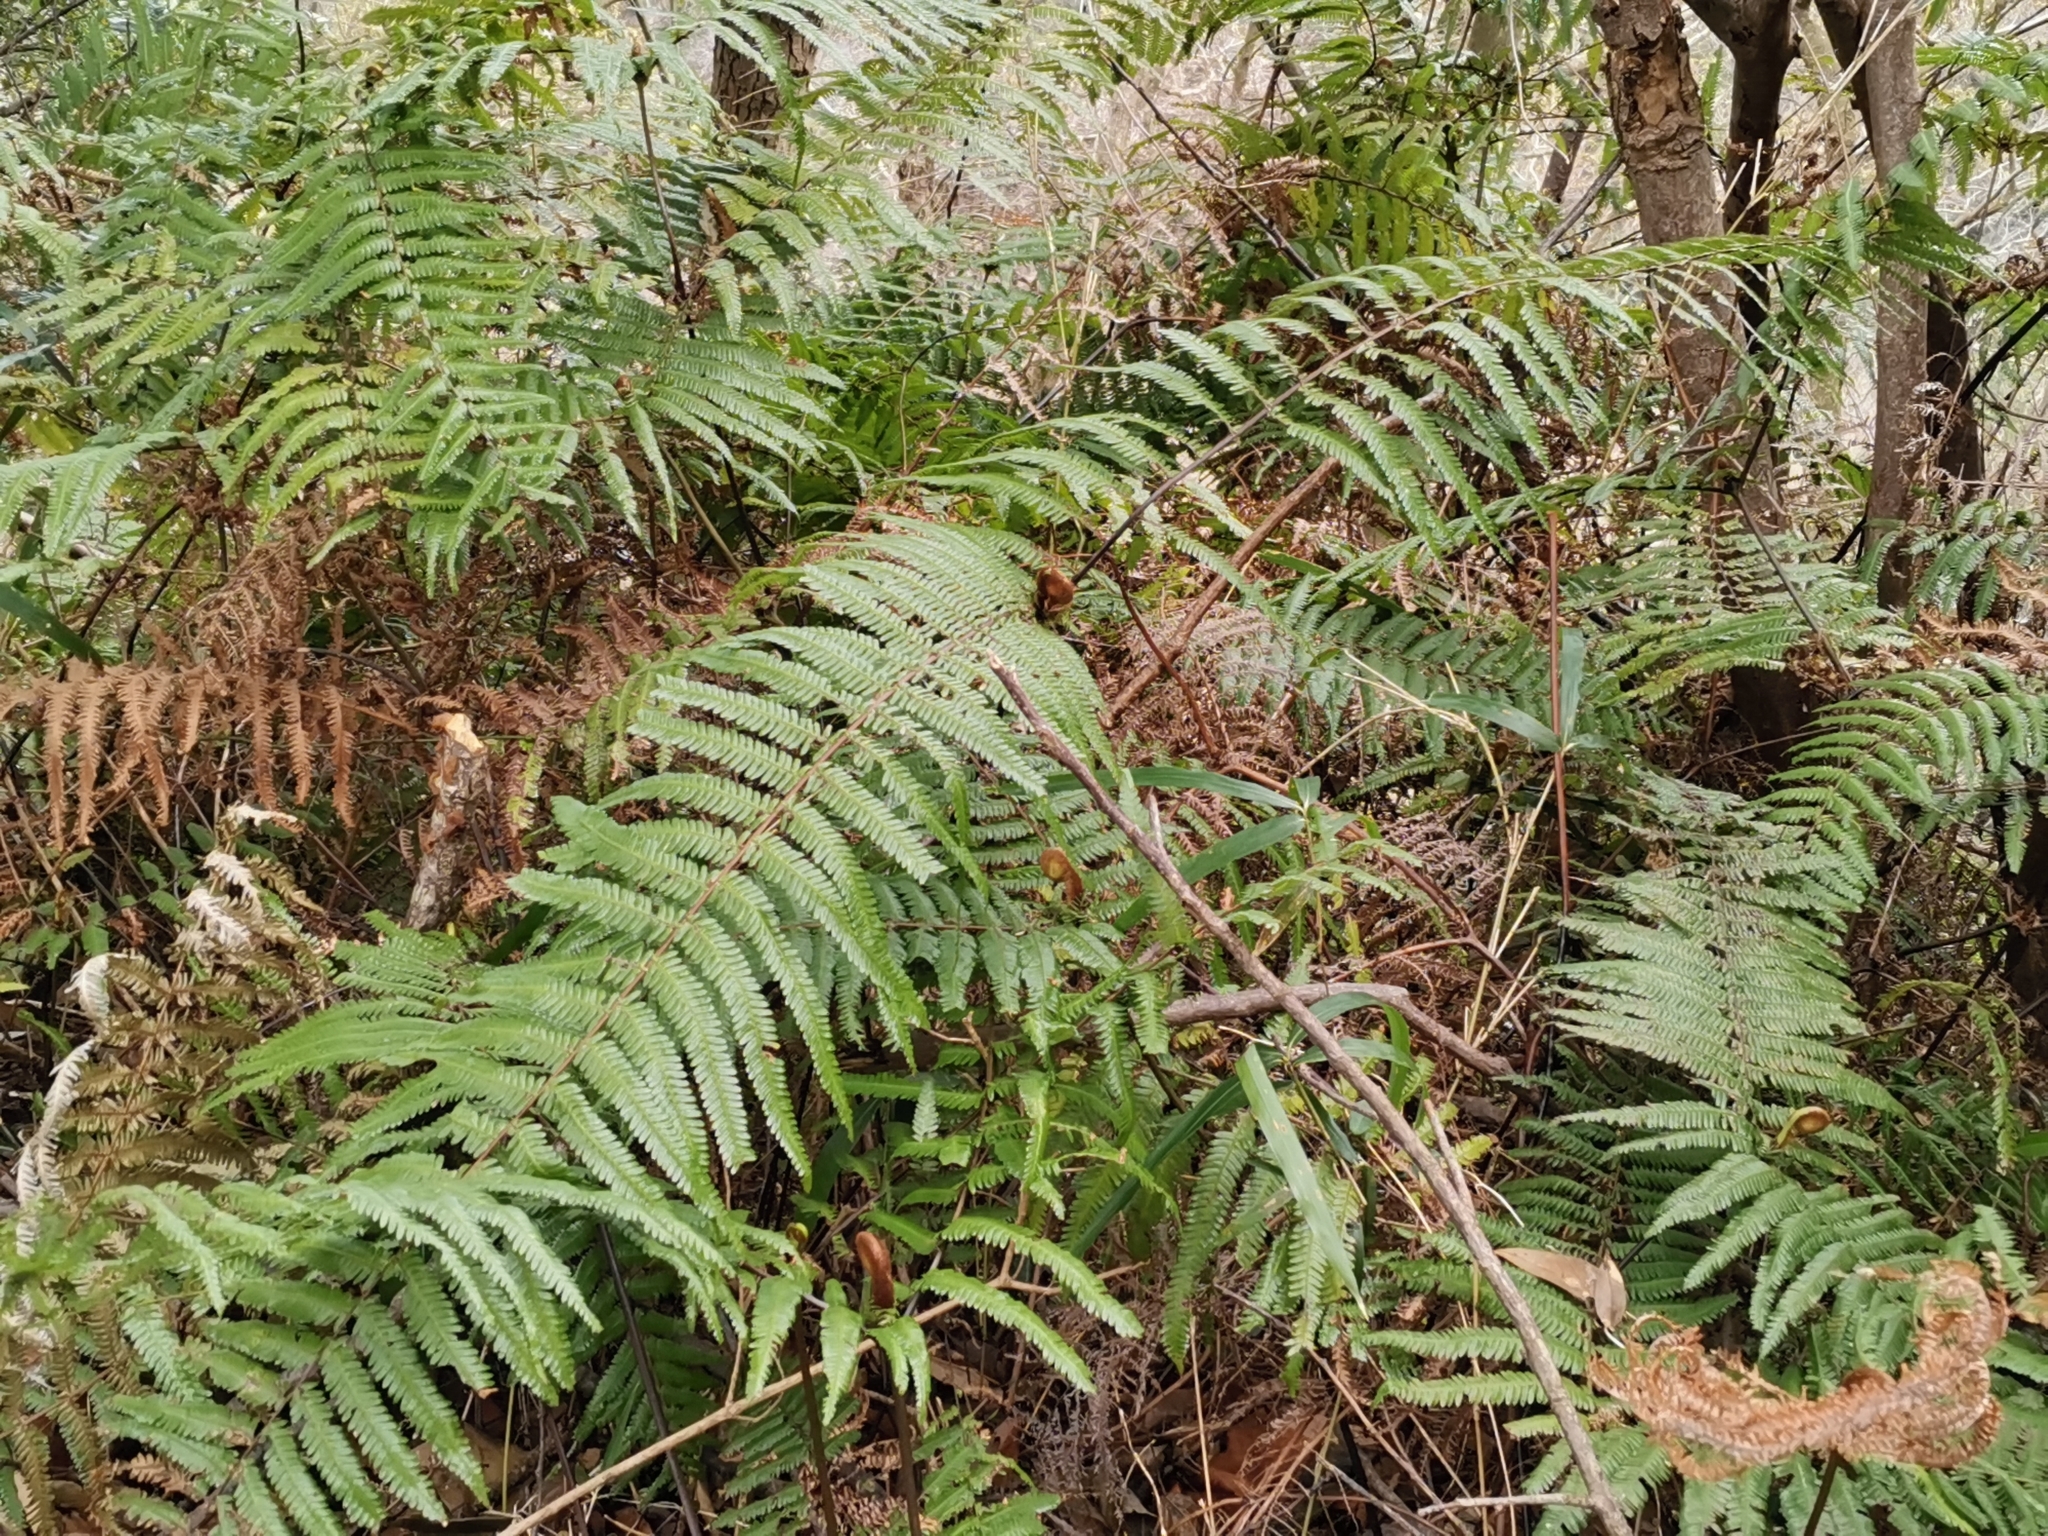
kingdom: Plantae
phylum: Tracheophyta
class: Polypodiopsida
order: Gleicheniales
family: Gleicheniaceae
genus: Diplopterygium
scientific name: Diplopterygium glaucum
